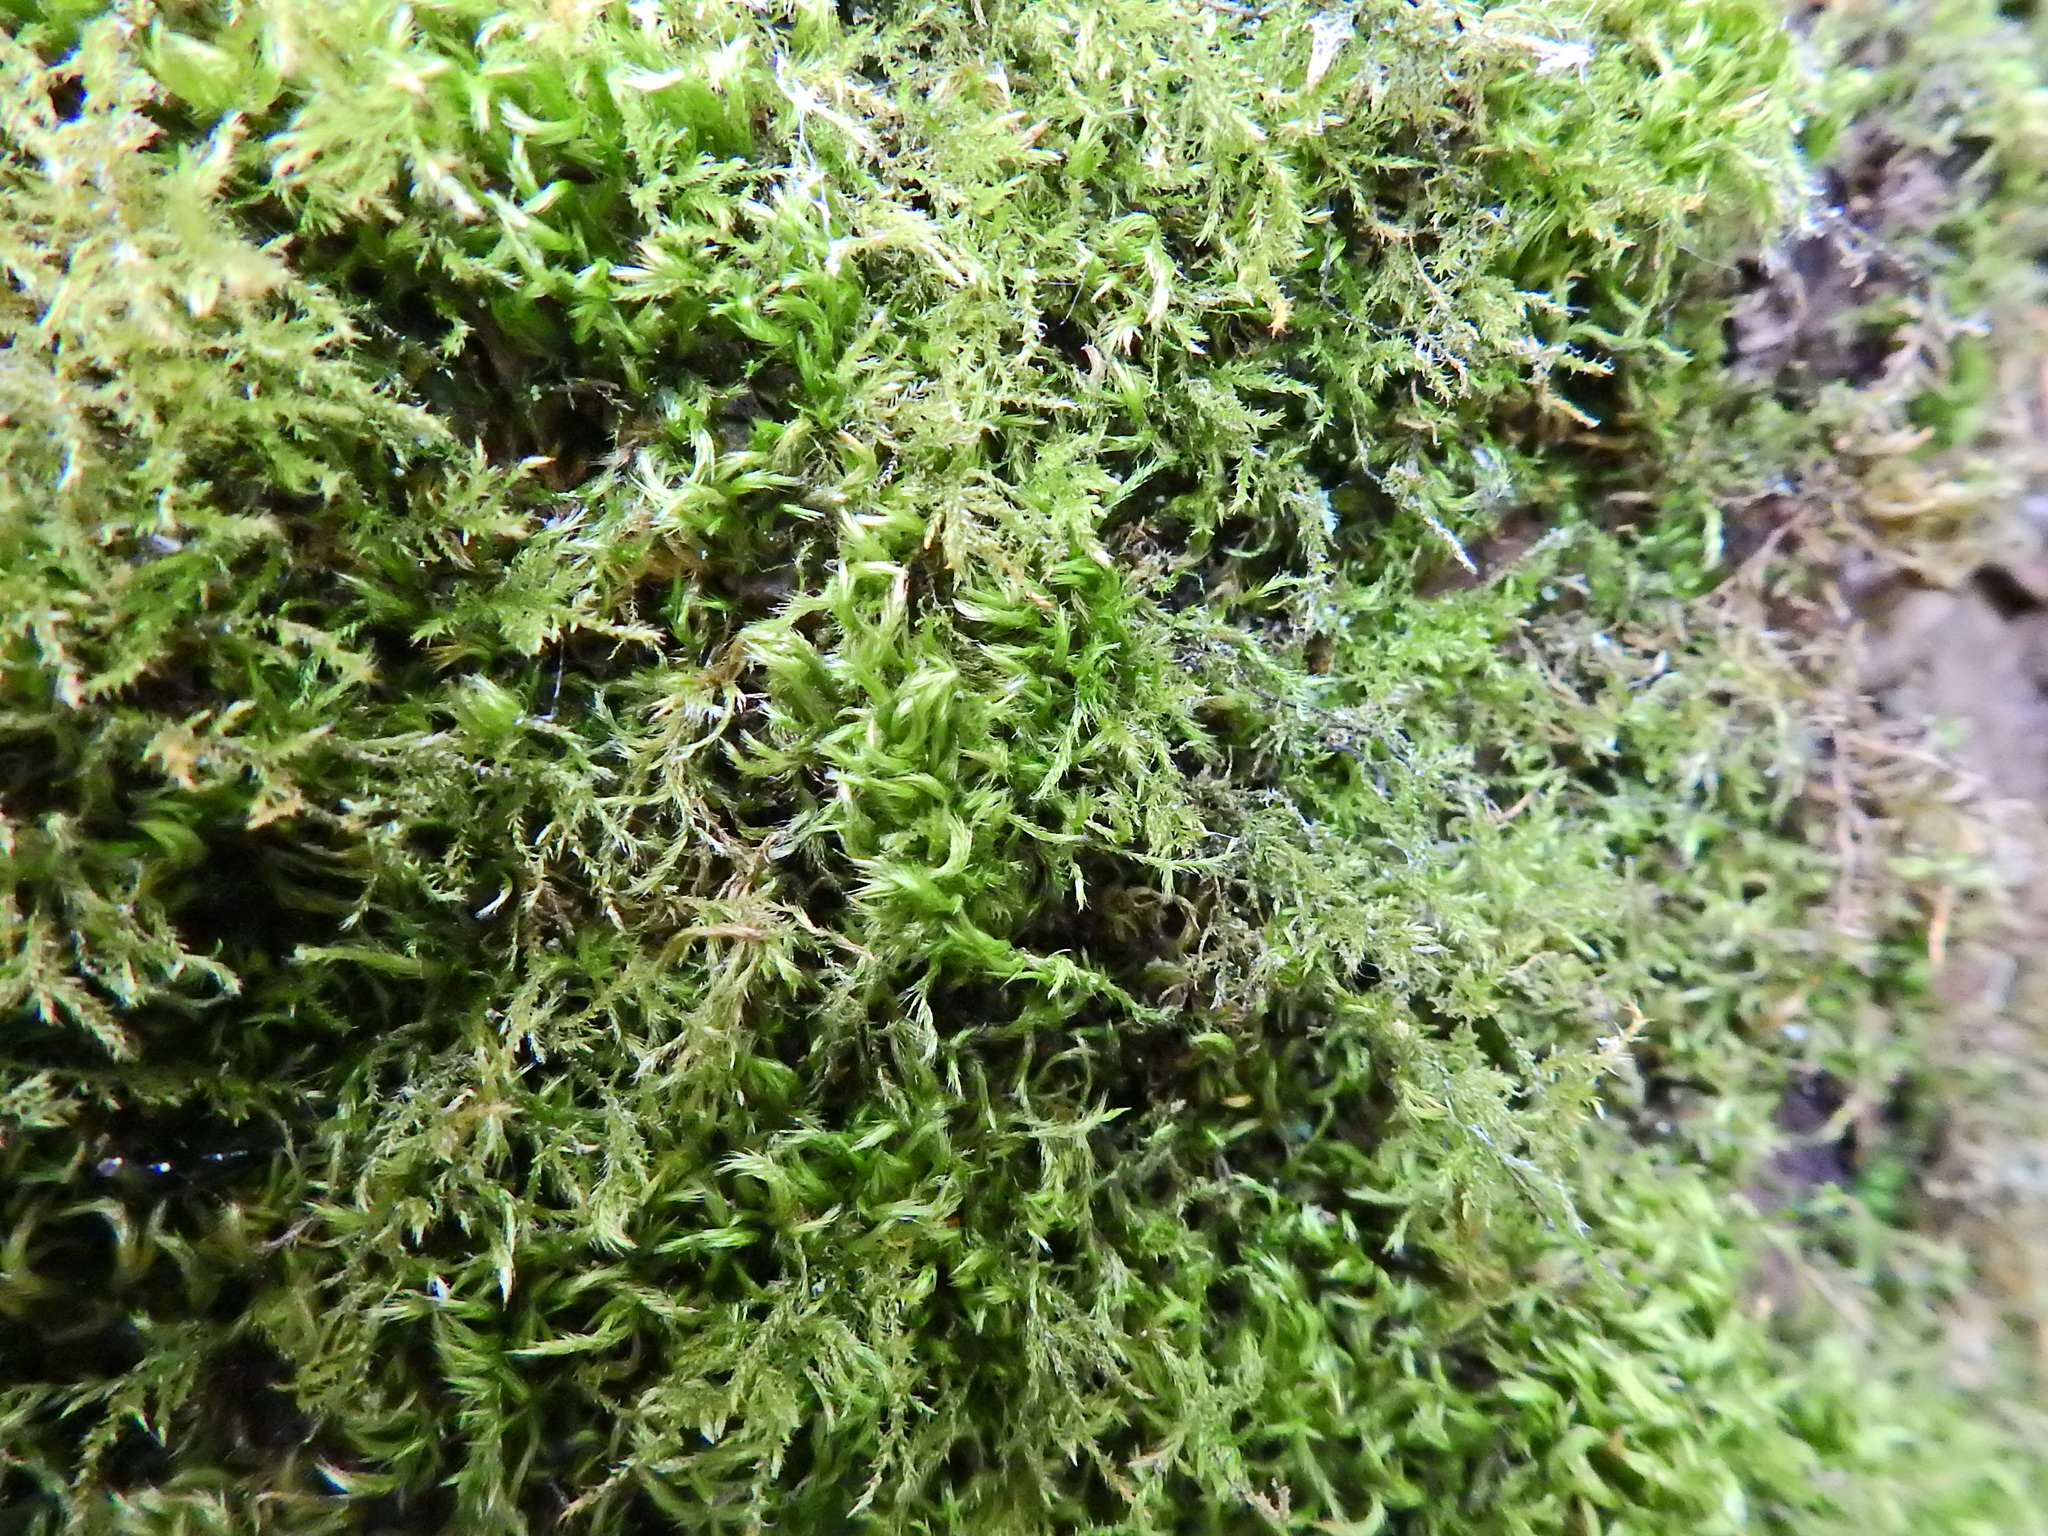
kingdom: Plantae
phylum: Bryophyta
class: Bryopsida
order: Hypnales
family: Pylaisiaceae
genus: Pylaisia
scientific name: Pylaisia polyantha
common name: Many-flowered leskea
